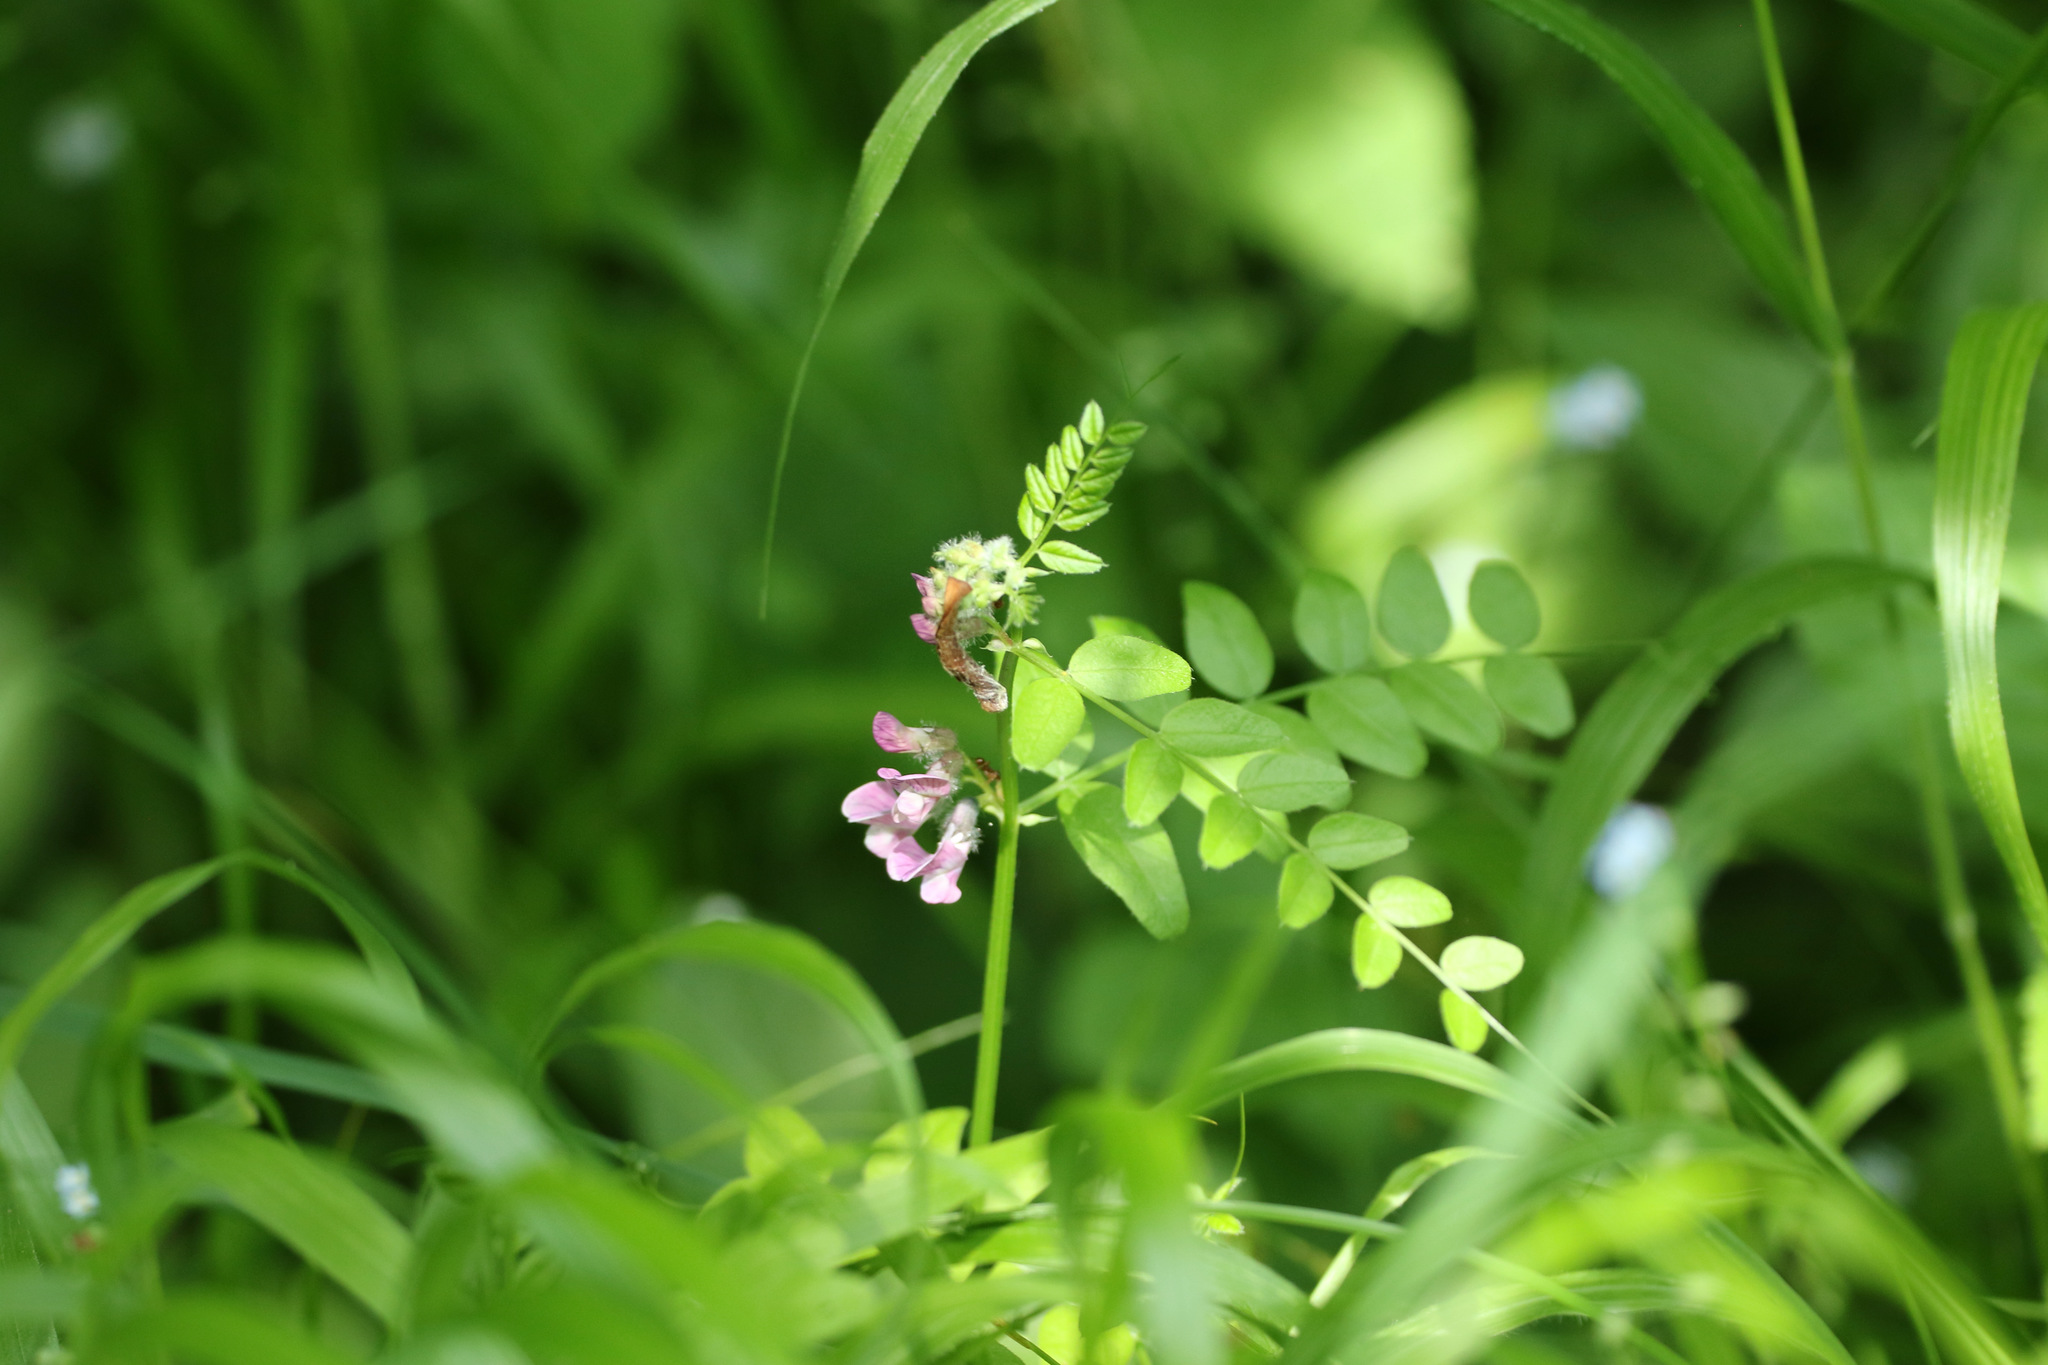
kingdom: Plantae
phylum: Tracheophyta
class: Magnoliopsida
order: Fabales
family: Fabaceae
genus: Vicia
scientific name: Vicia sepium
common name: Bush vetch
